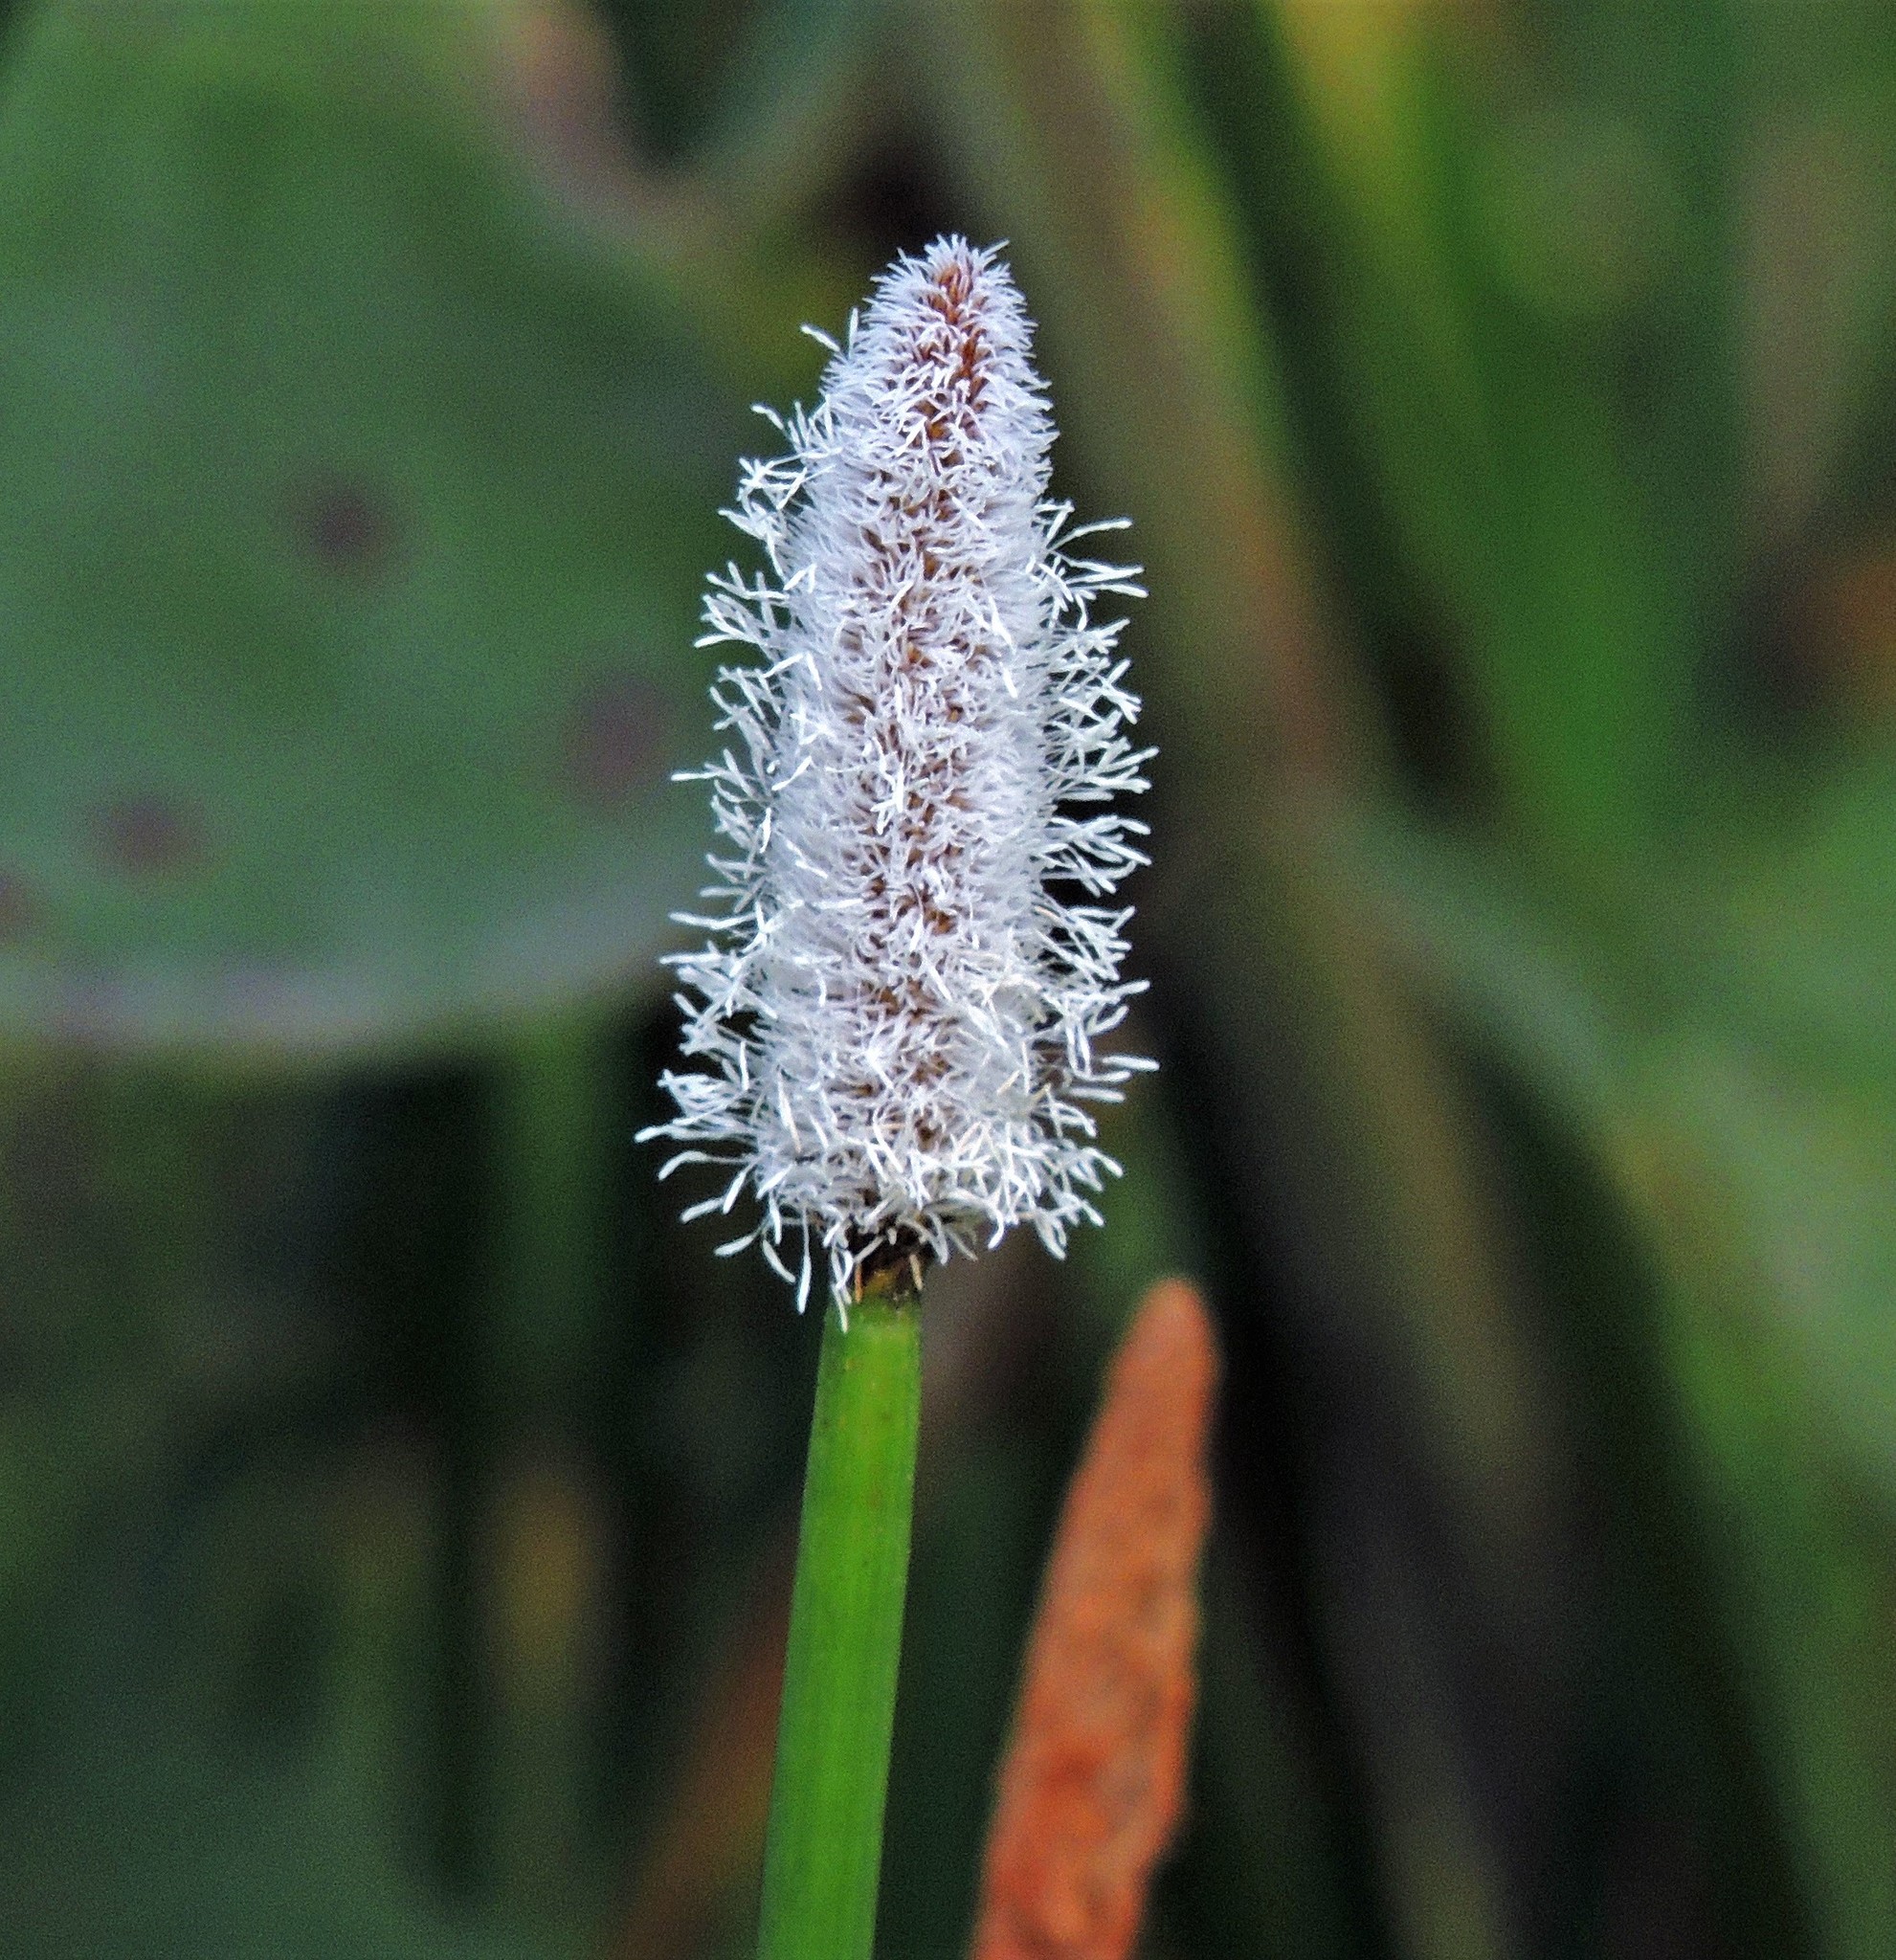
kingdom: Plantae
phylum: Tracheophyta
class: Liliopsida
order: Poales
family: Cyperaceae
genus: Eleocharis
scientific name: Eleocharis elegans
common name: Elegant spike-rush
